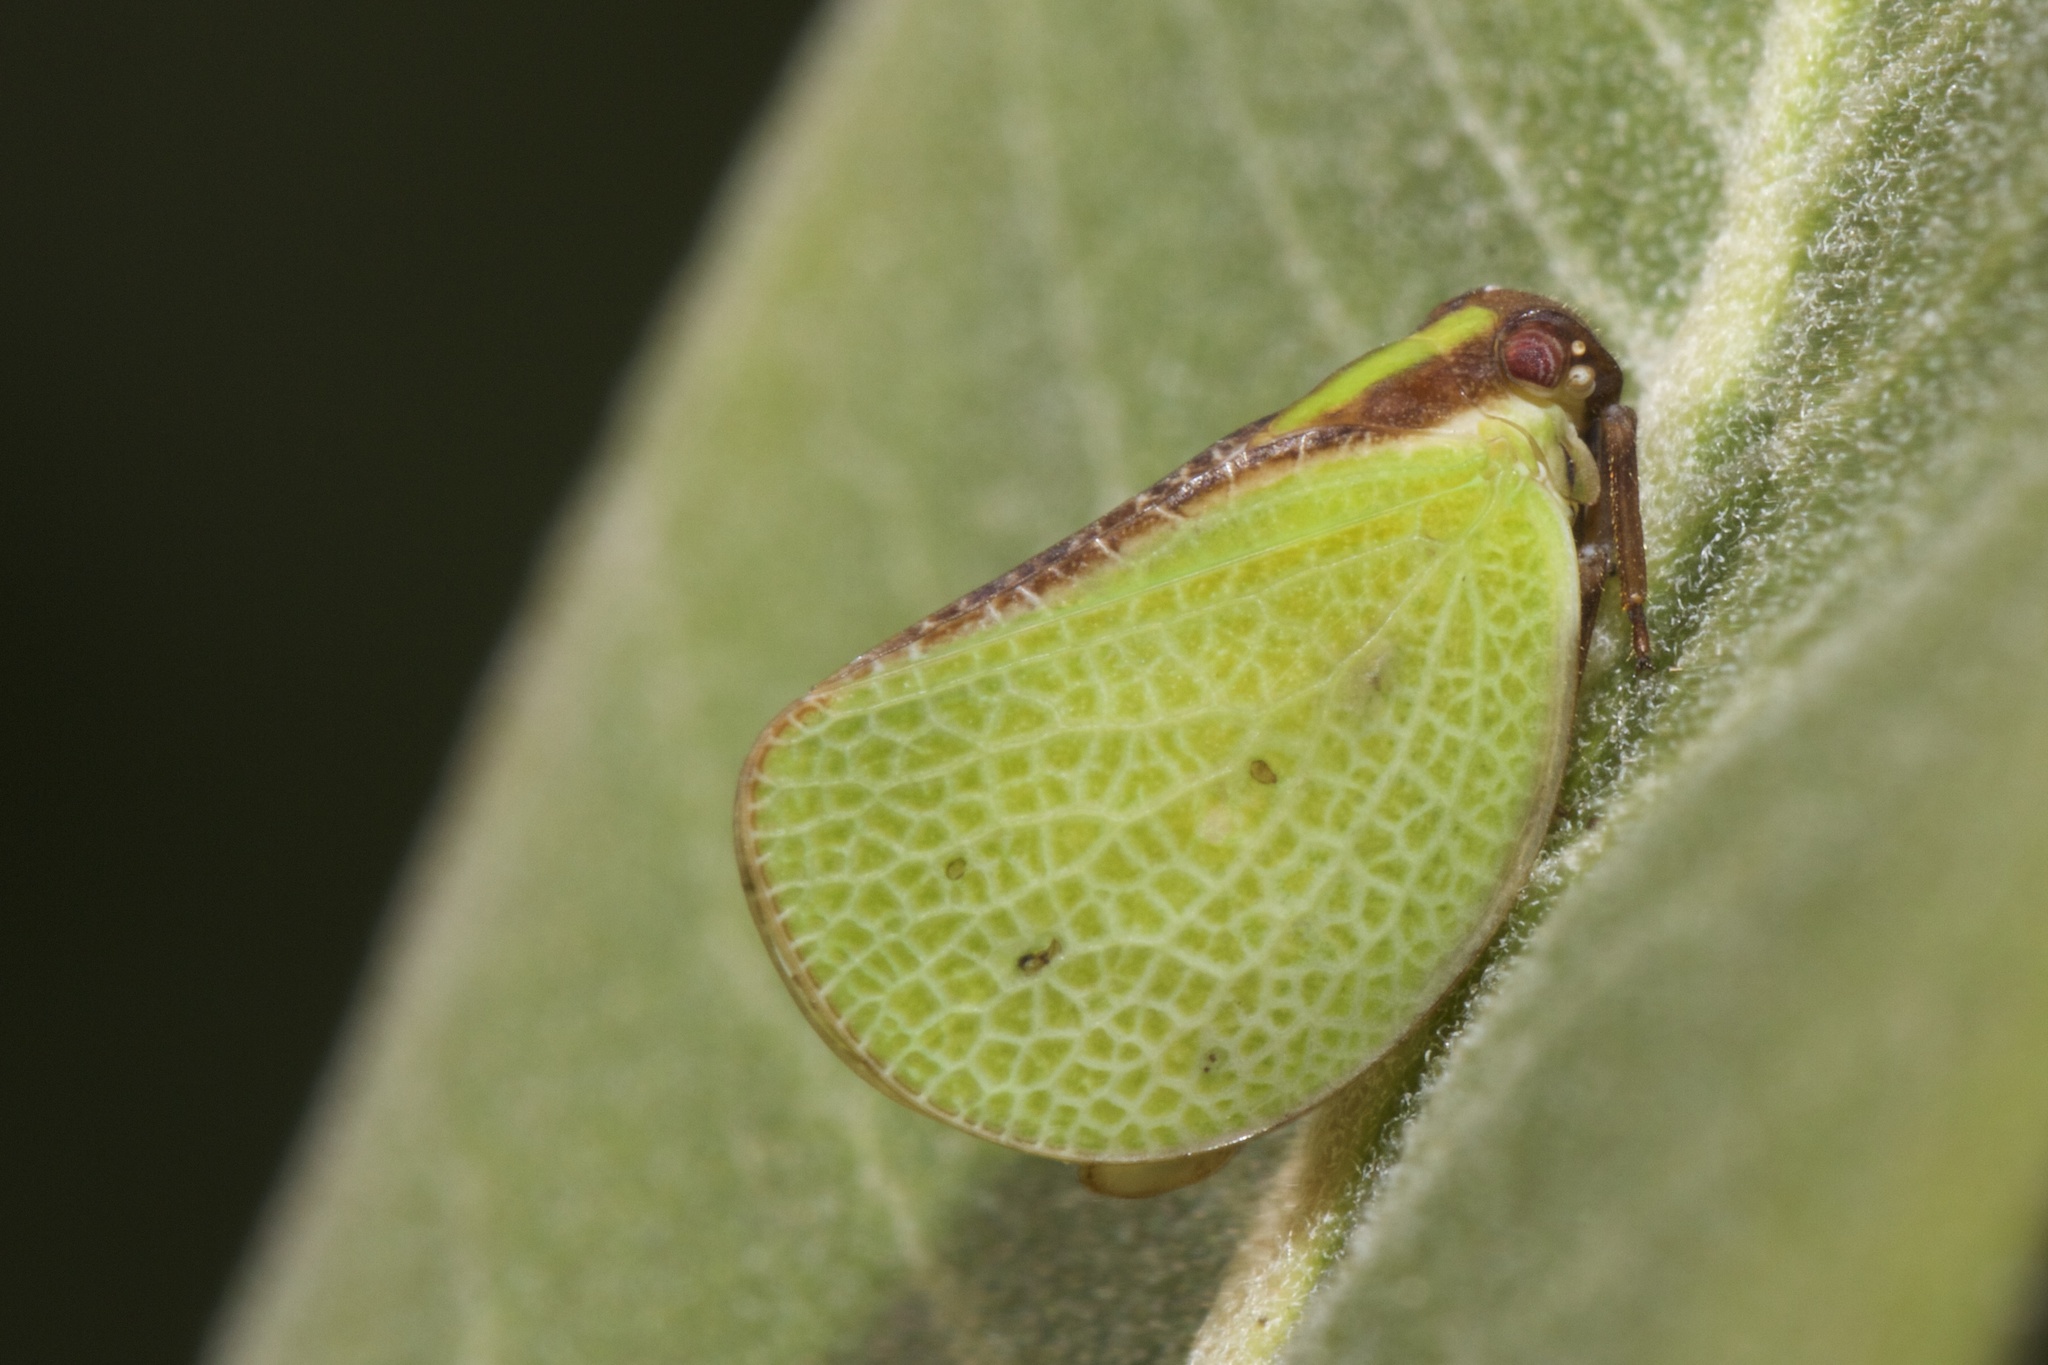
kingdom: Animalia
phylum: Arthropoda
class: Insecta
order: Hemiptera
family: Acanaloniidae
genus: Acanalonia
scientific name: Acanalonia bivittata
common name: Two-striped planthopper
